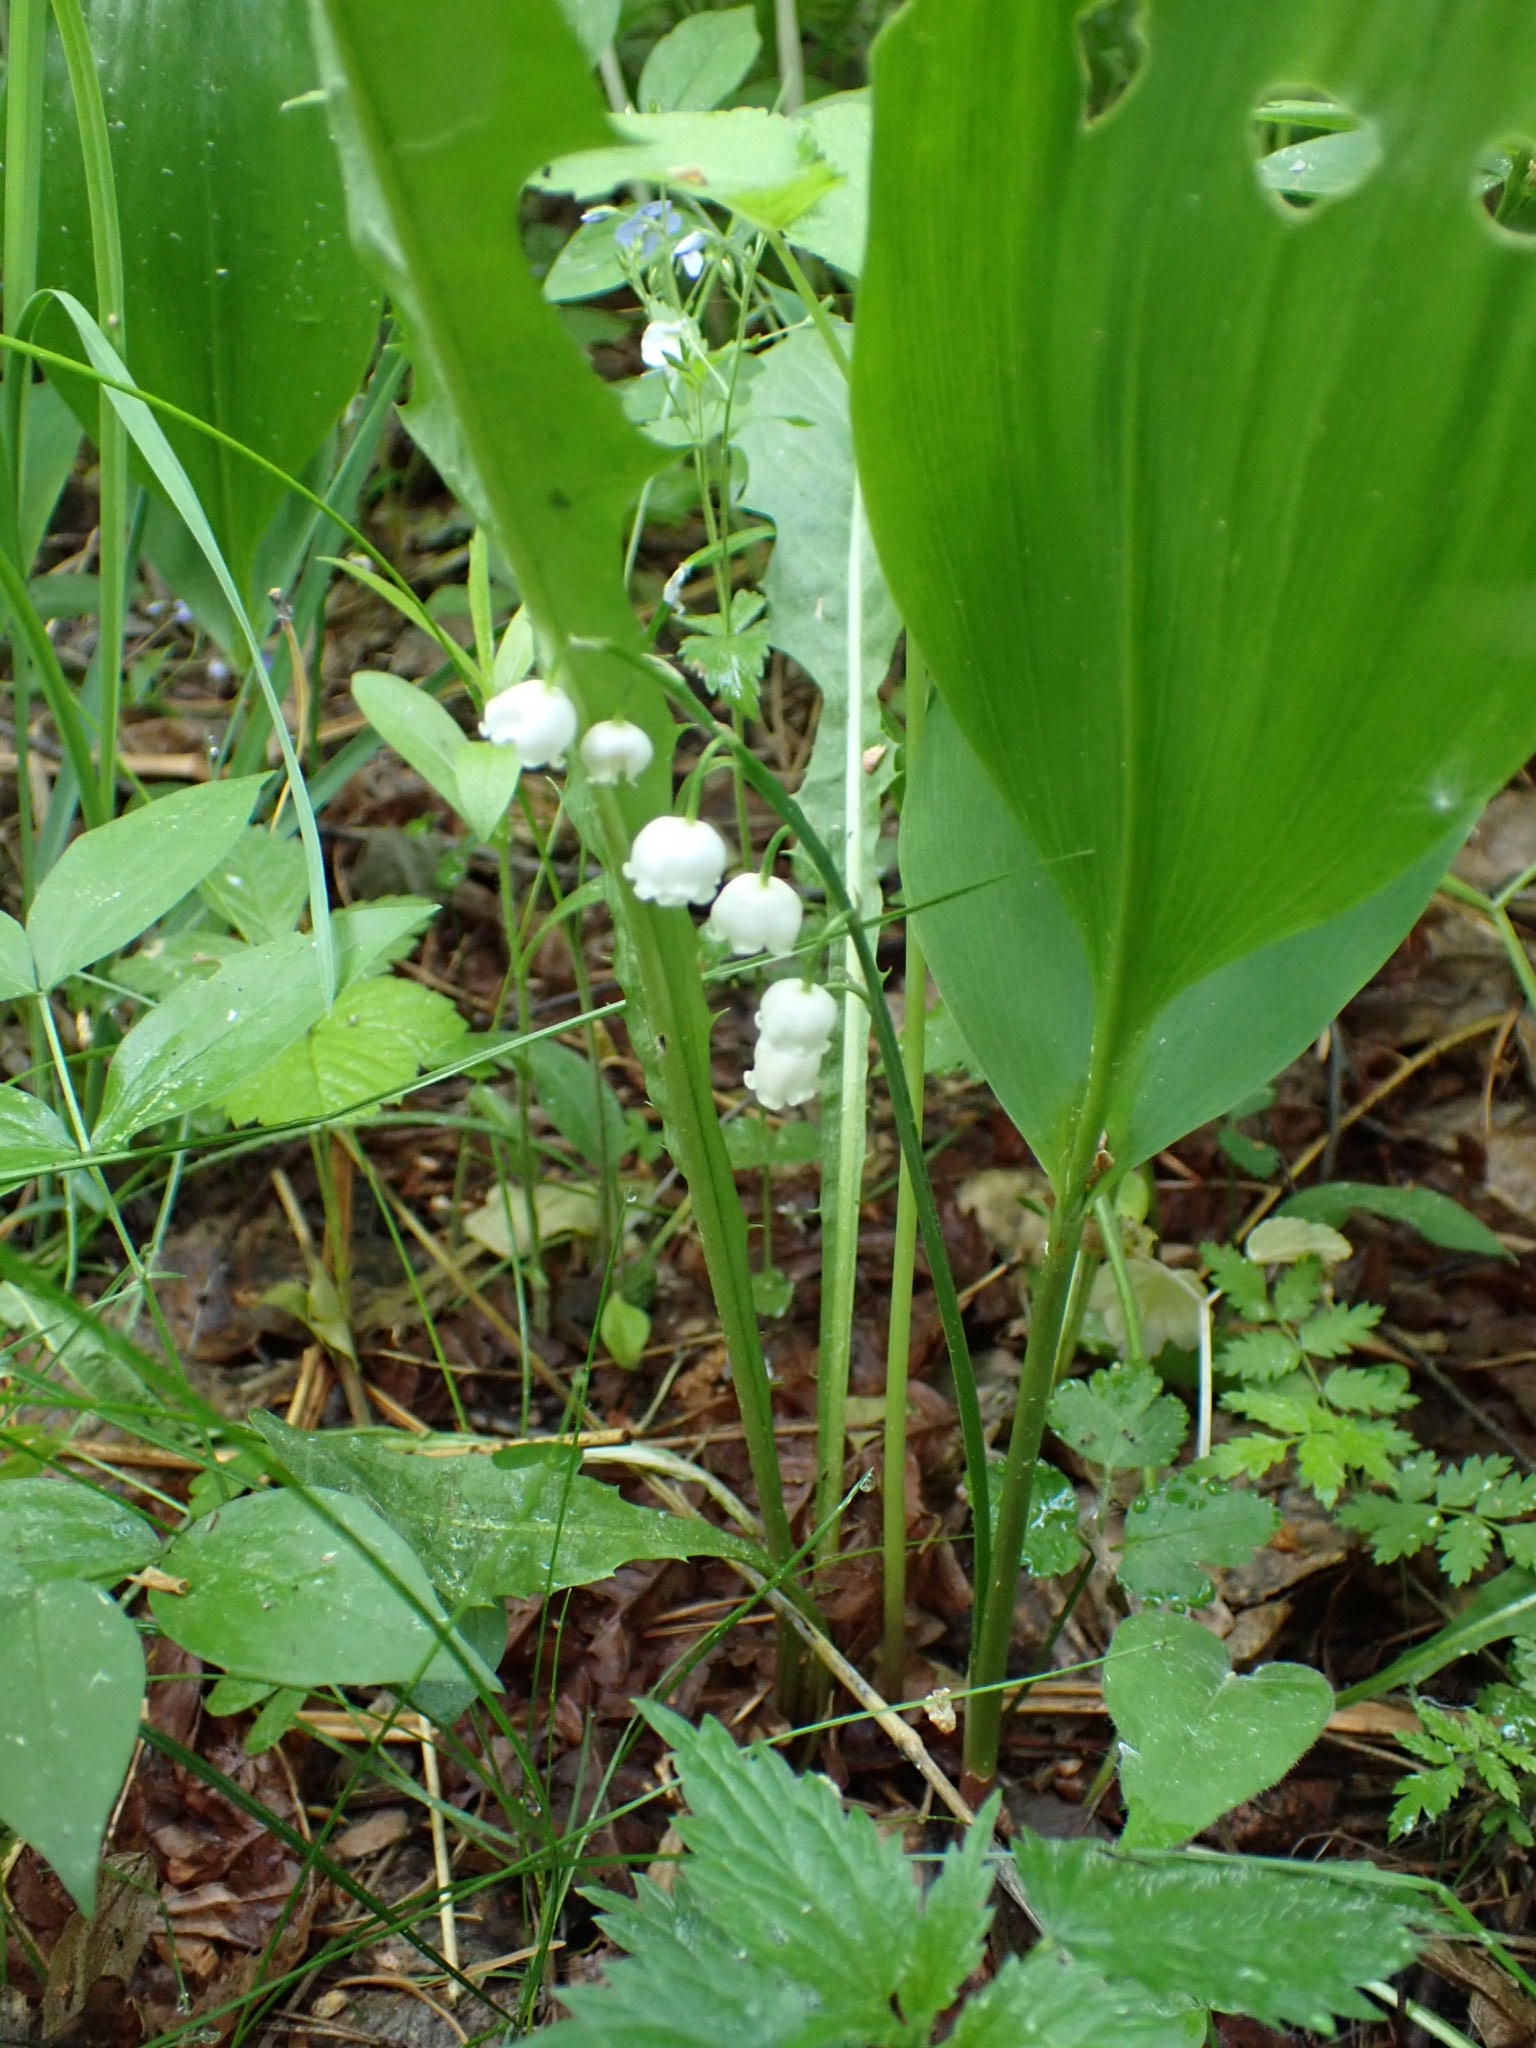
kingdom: Plantae
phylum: Tracheophyta
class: Liliopsida
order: Asparagales
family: Asparagaceae
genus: Convallaria
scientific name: Convallaria majalis
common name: Lily-of-the-valley
